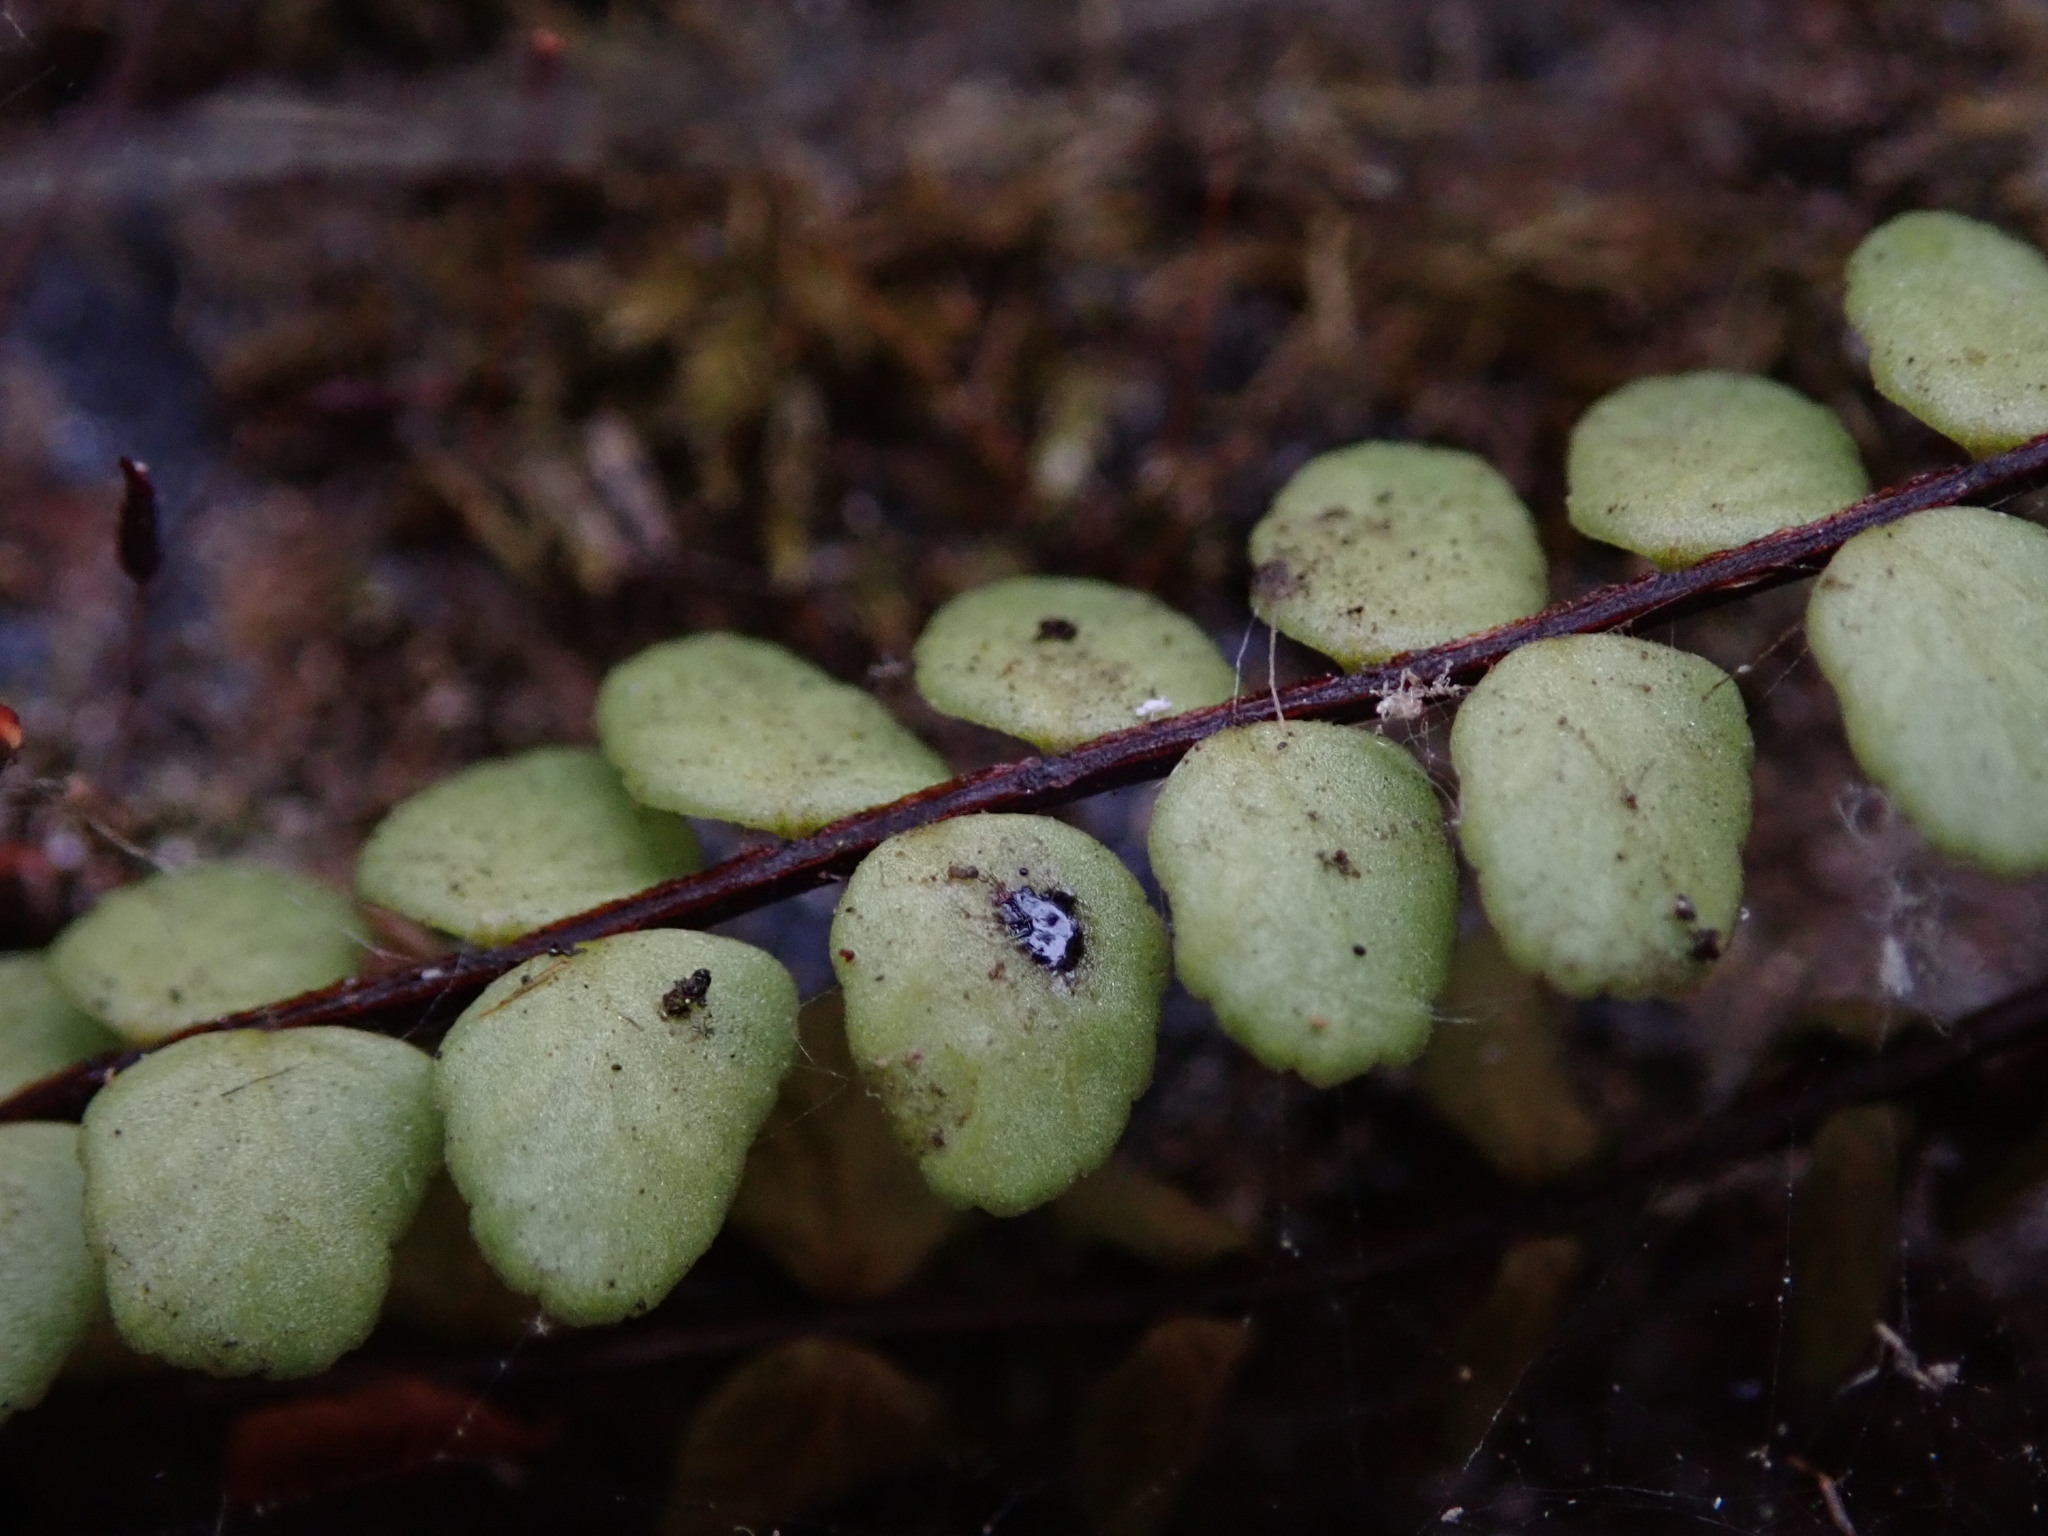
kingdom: Plantae
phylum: Tracheophyta
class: Polypodiopsida
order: Polypodiales
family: Aspleniaceae
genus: Asplenium
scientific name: Asplenium trichomanes
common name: Maidenhair spleenwort
